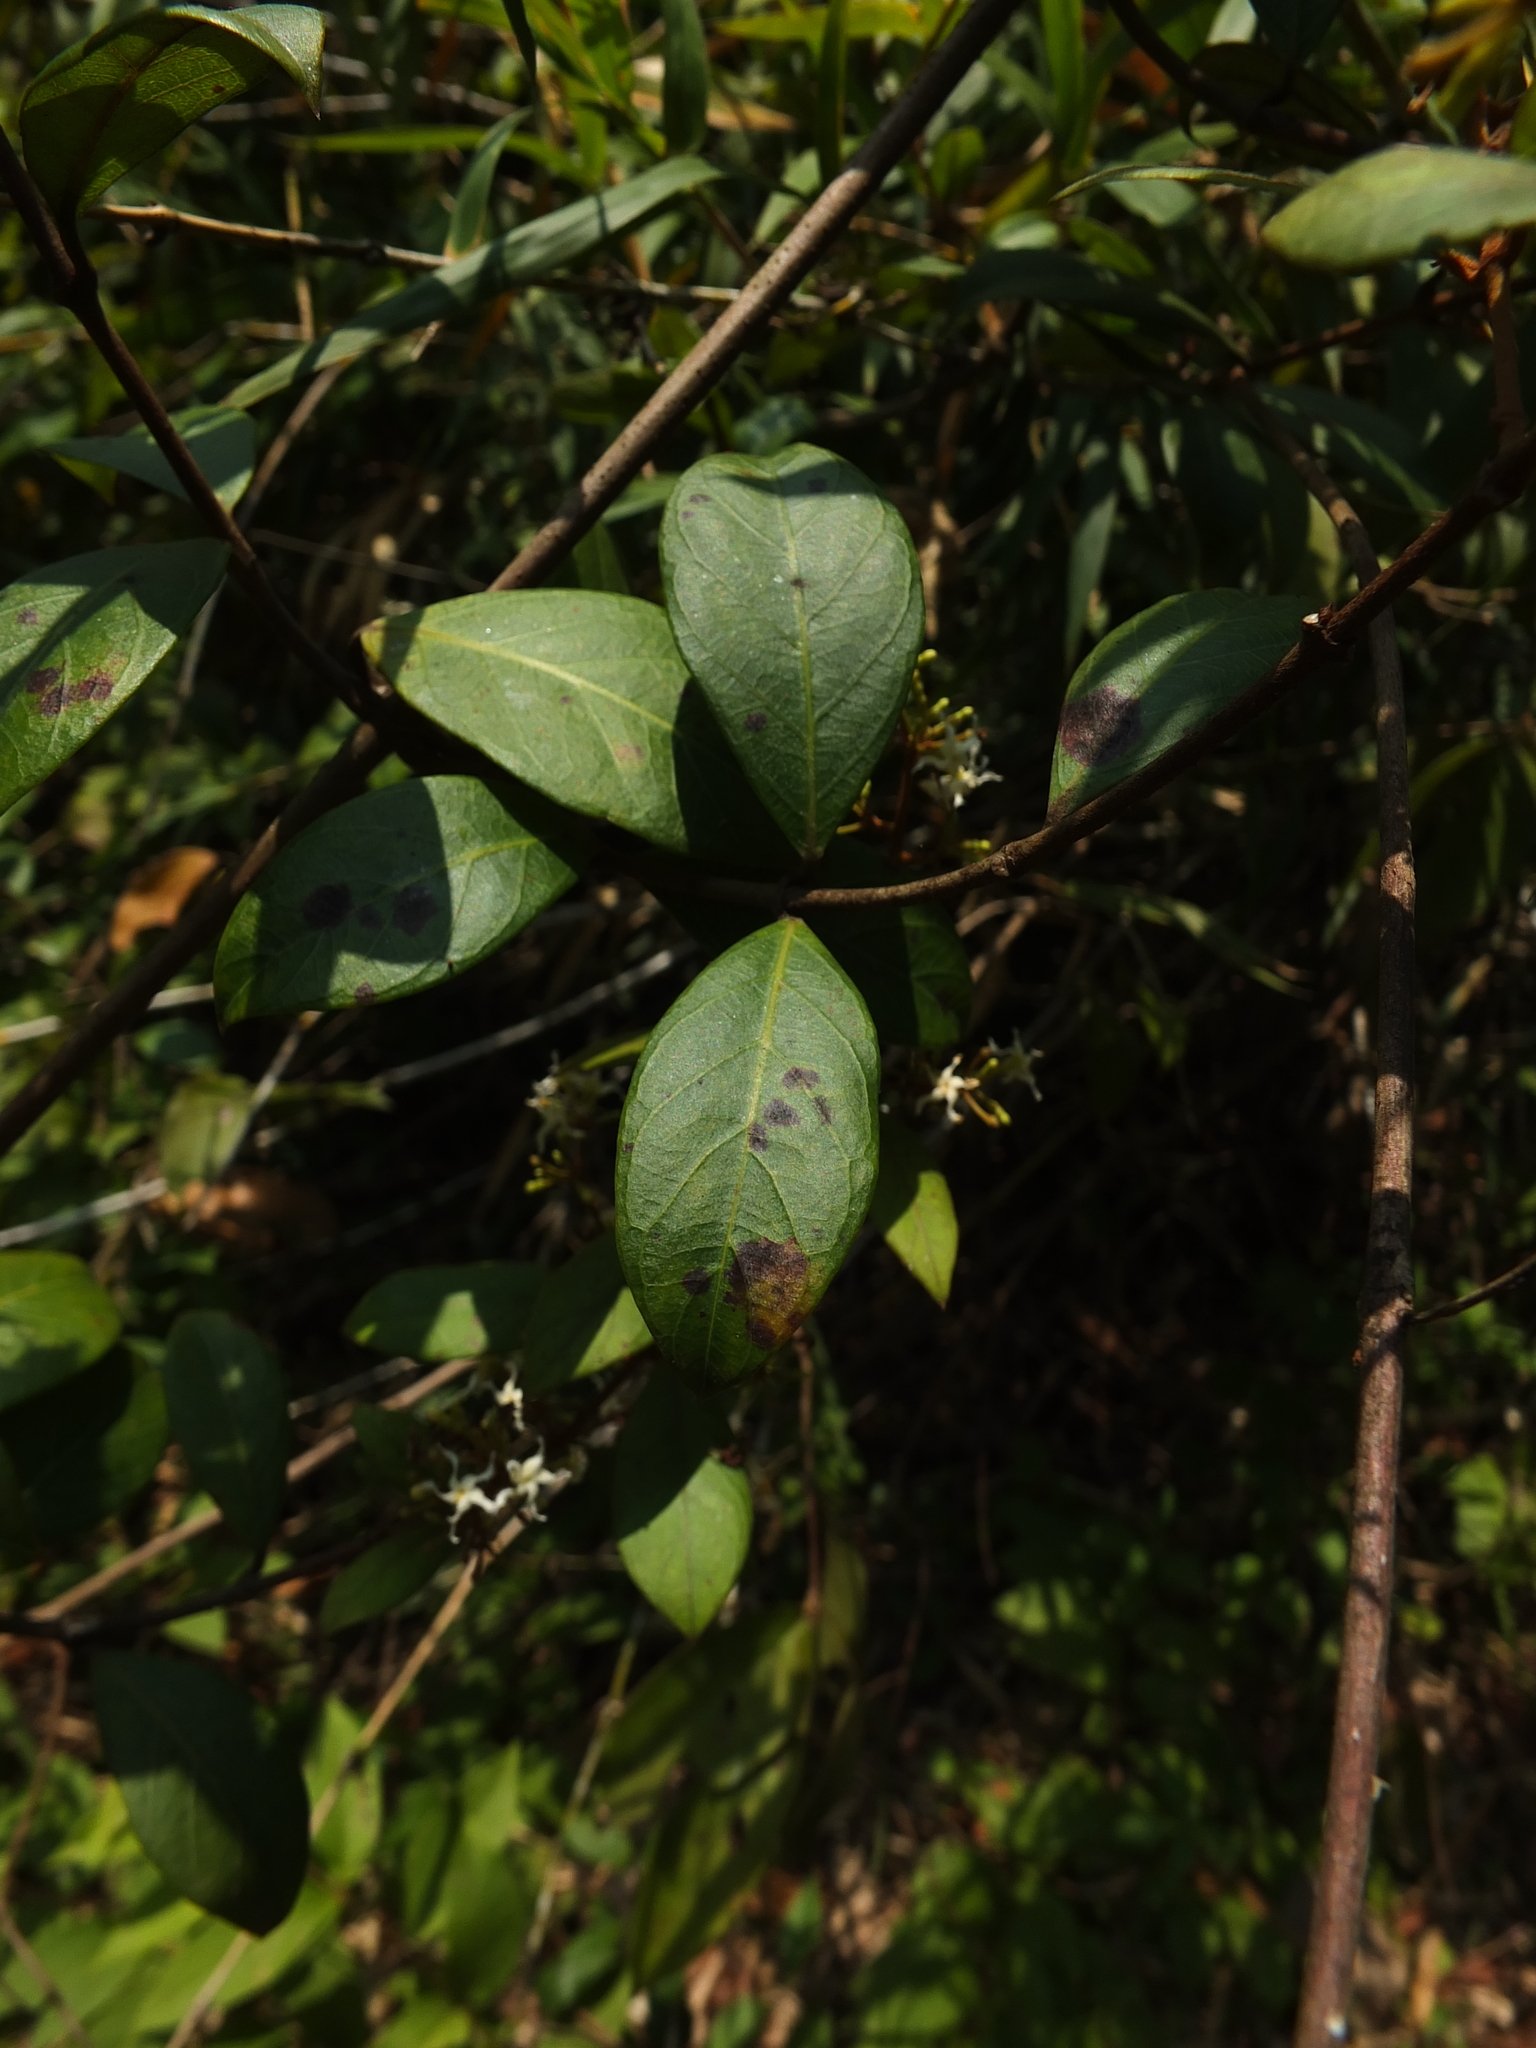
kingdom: Plantae
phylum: Tracheophyta
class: Magnoliopsida
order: Gentianales
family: Apocynaceae
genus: Ichnocarpus
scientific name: Ichnocarpus frutescens
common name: Ichnocarpus
